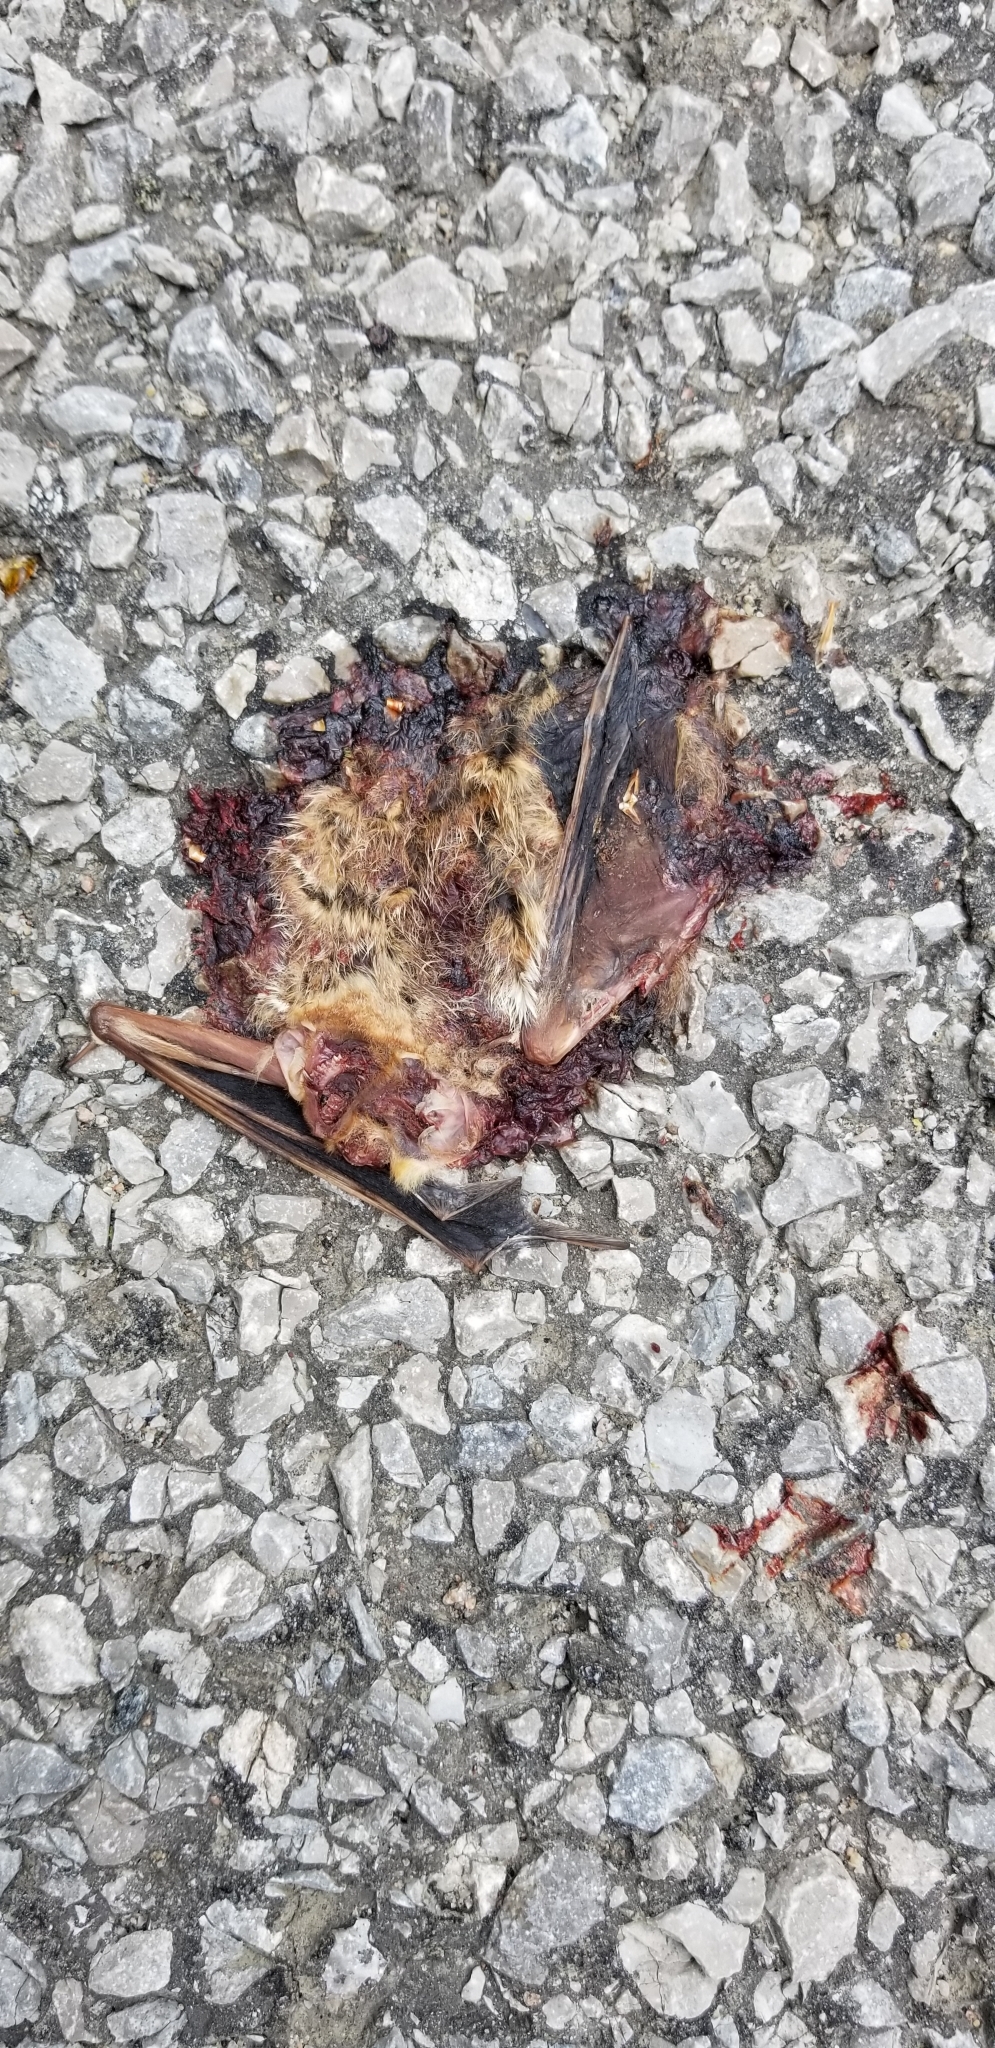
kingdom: Animalia
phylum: Chordata
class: Mammalia
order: Chiroptera
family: Vespertilionidae
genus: Lasiurus
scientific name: Lasiurus borealis
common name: Eastern red bat
